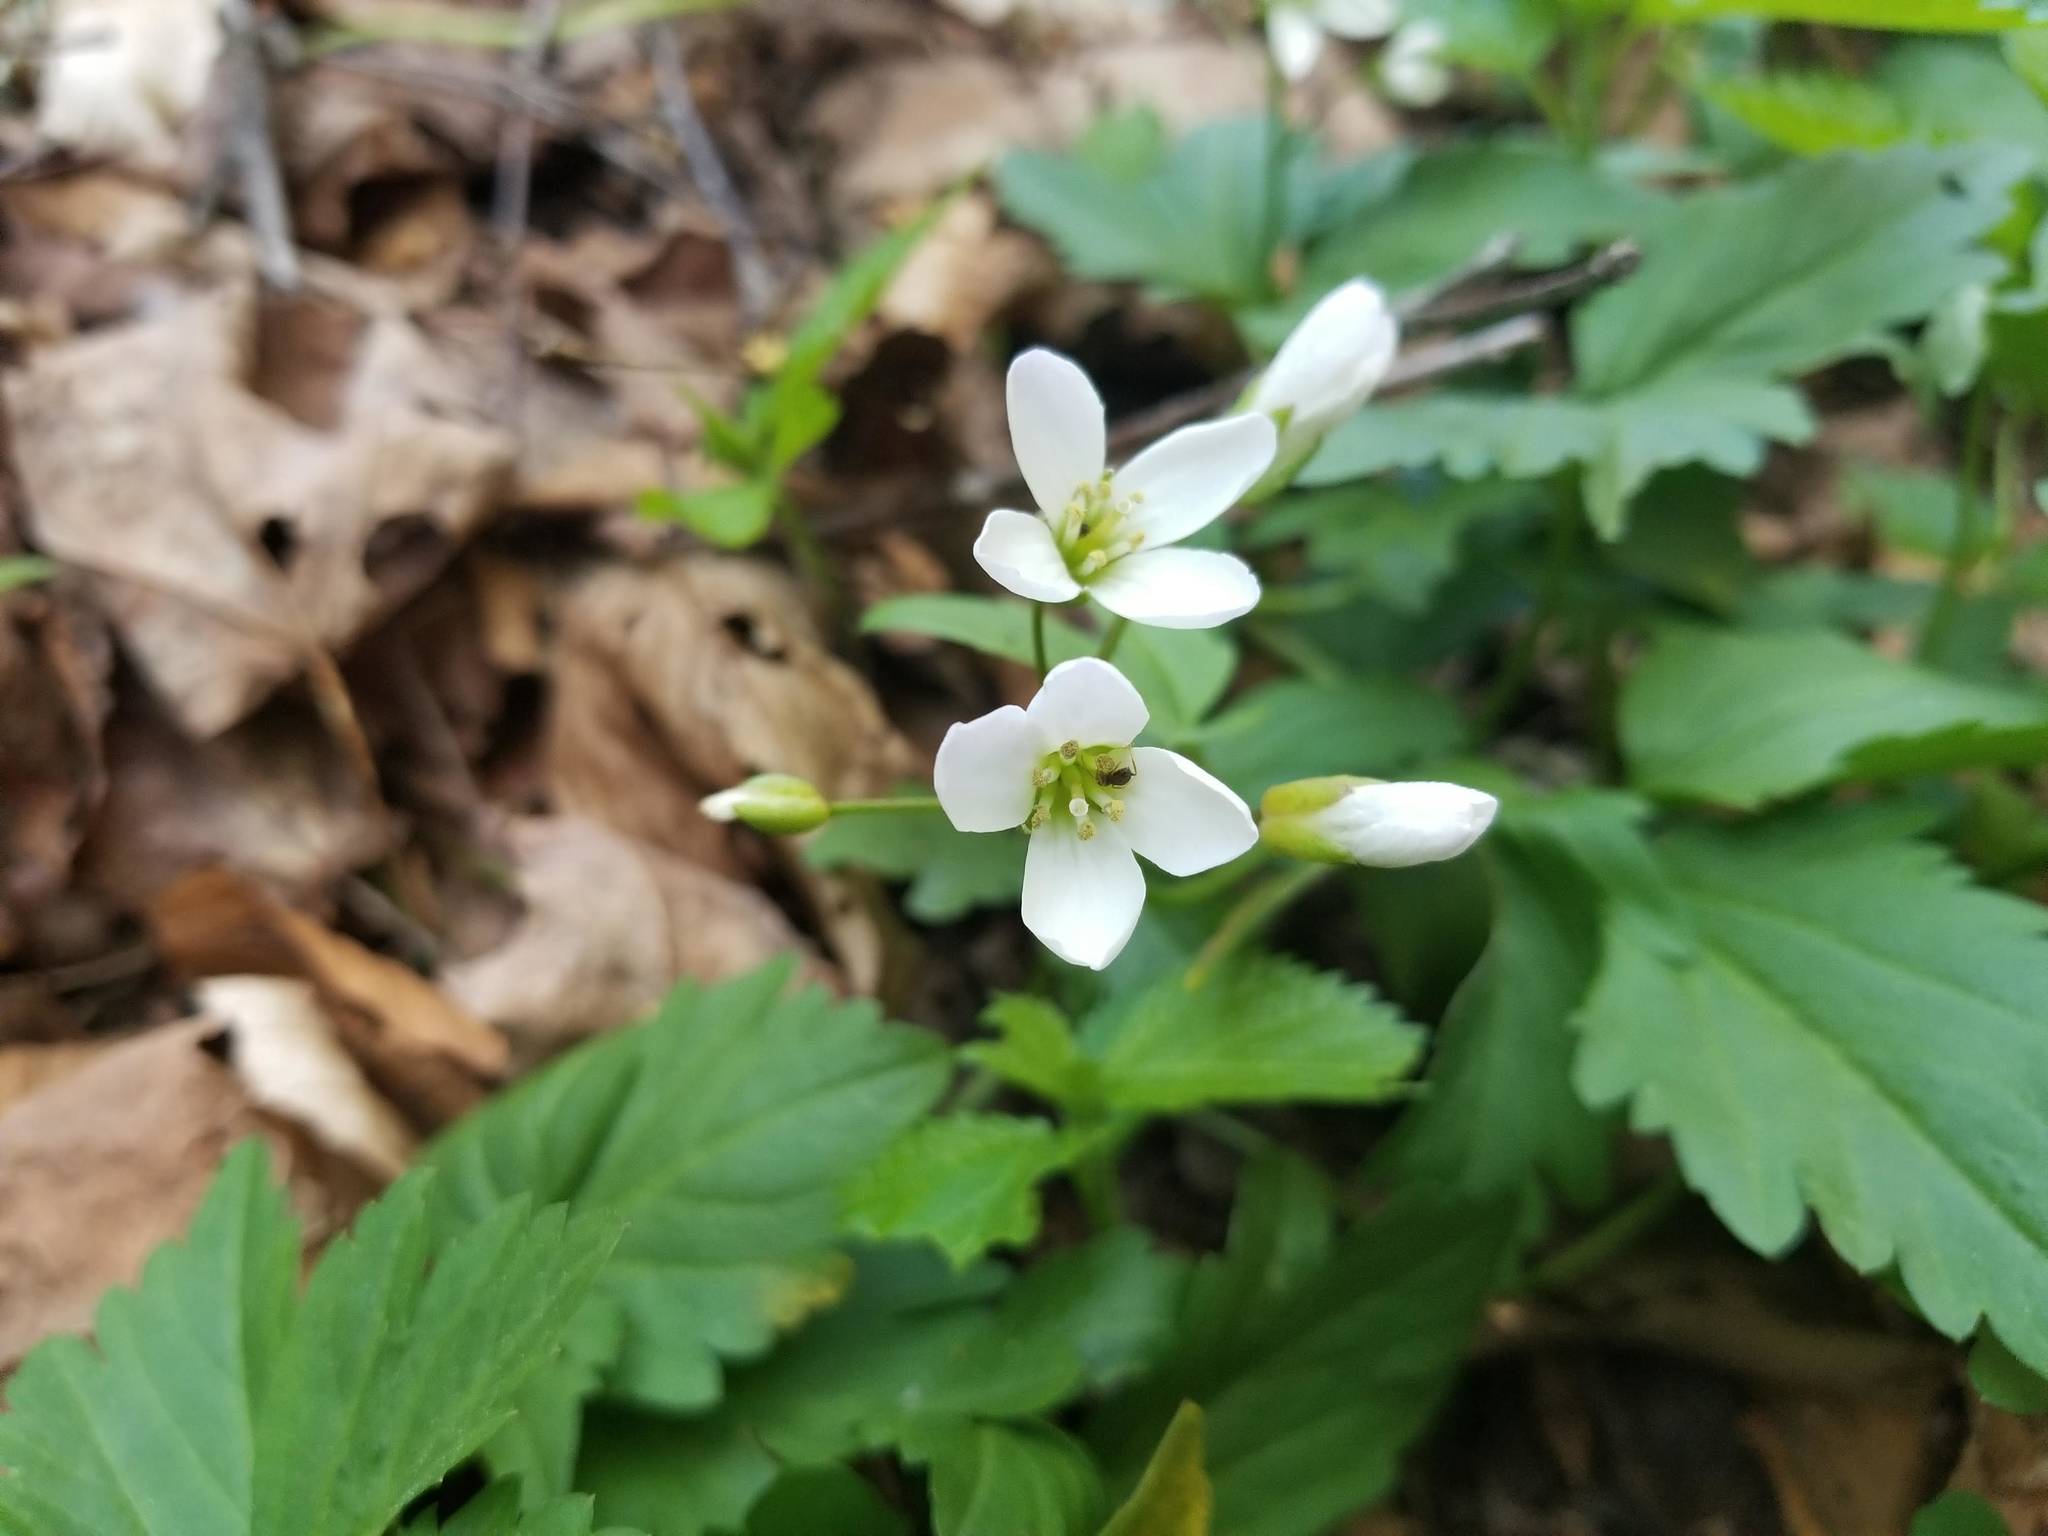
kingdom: Plantae
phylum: Tracheophyta
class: Magnoliopsida
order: Brassicales
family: Brassicaceae
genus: Cardamine
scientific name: Cardamine diphylla
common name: Broad-leaved toothwort
